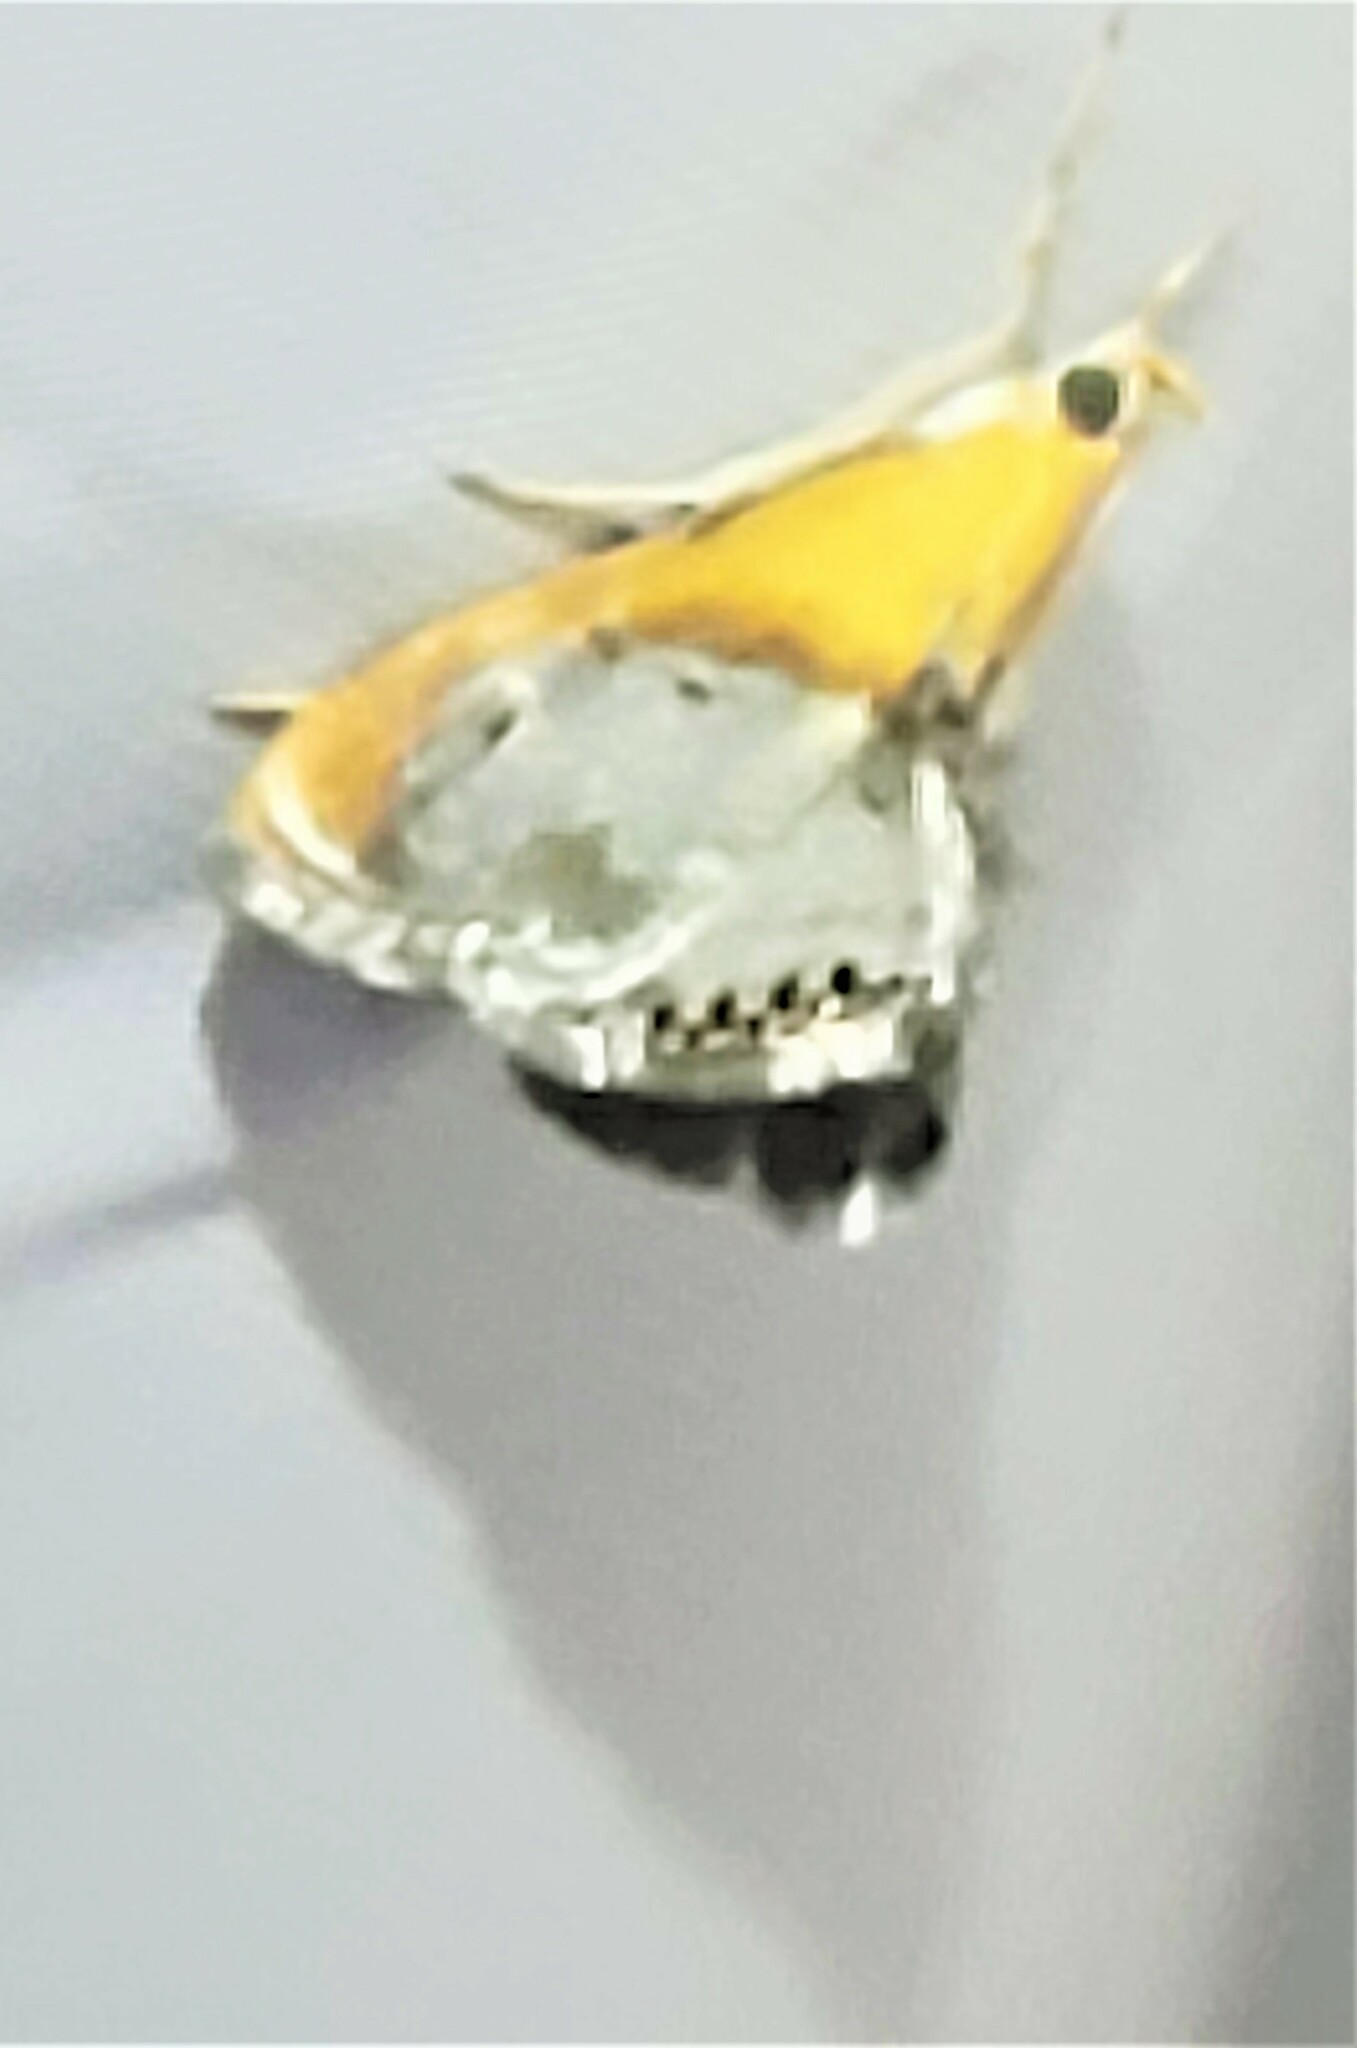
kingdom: Animalia
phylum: Arthropoda
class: Insecta
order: Lepidoptera
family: Crambidae
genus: Chalcoela
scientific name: Chalcoela iphitalis
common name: Sooty-winged chalcoela moth
